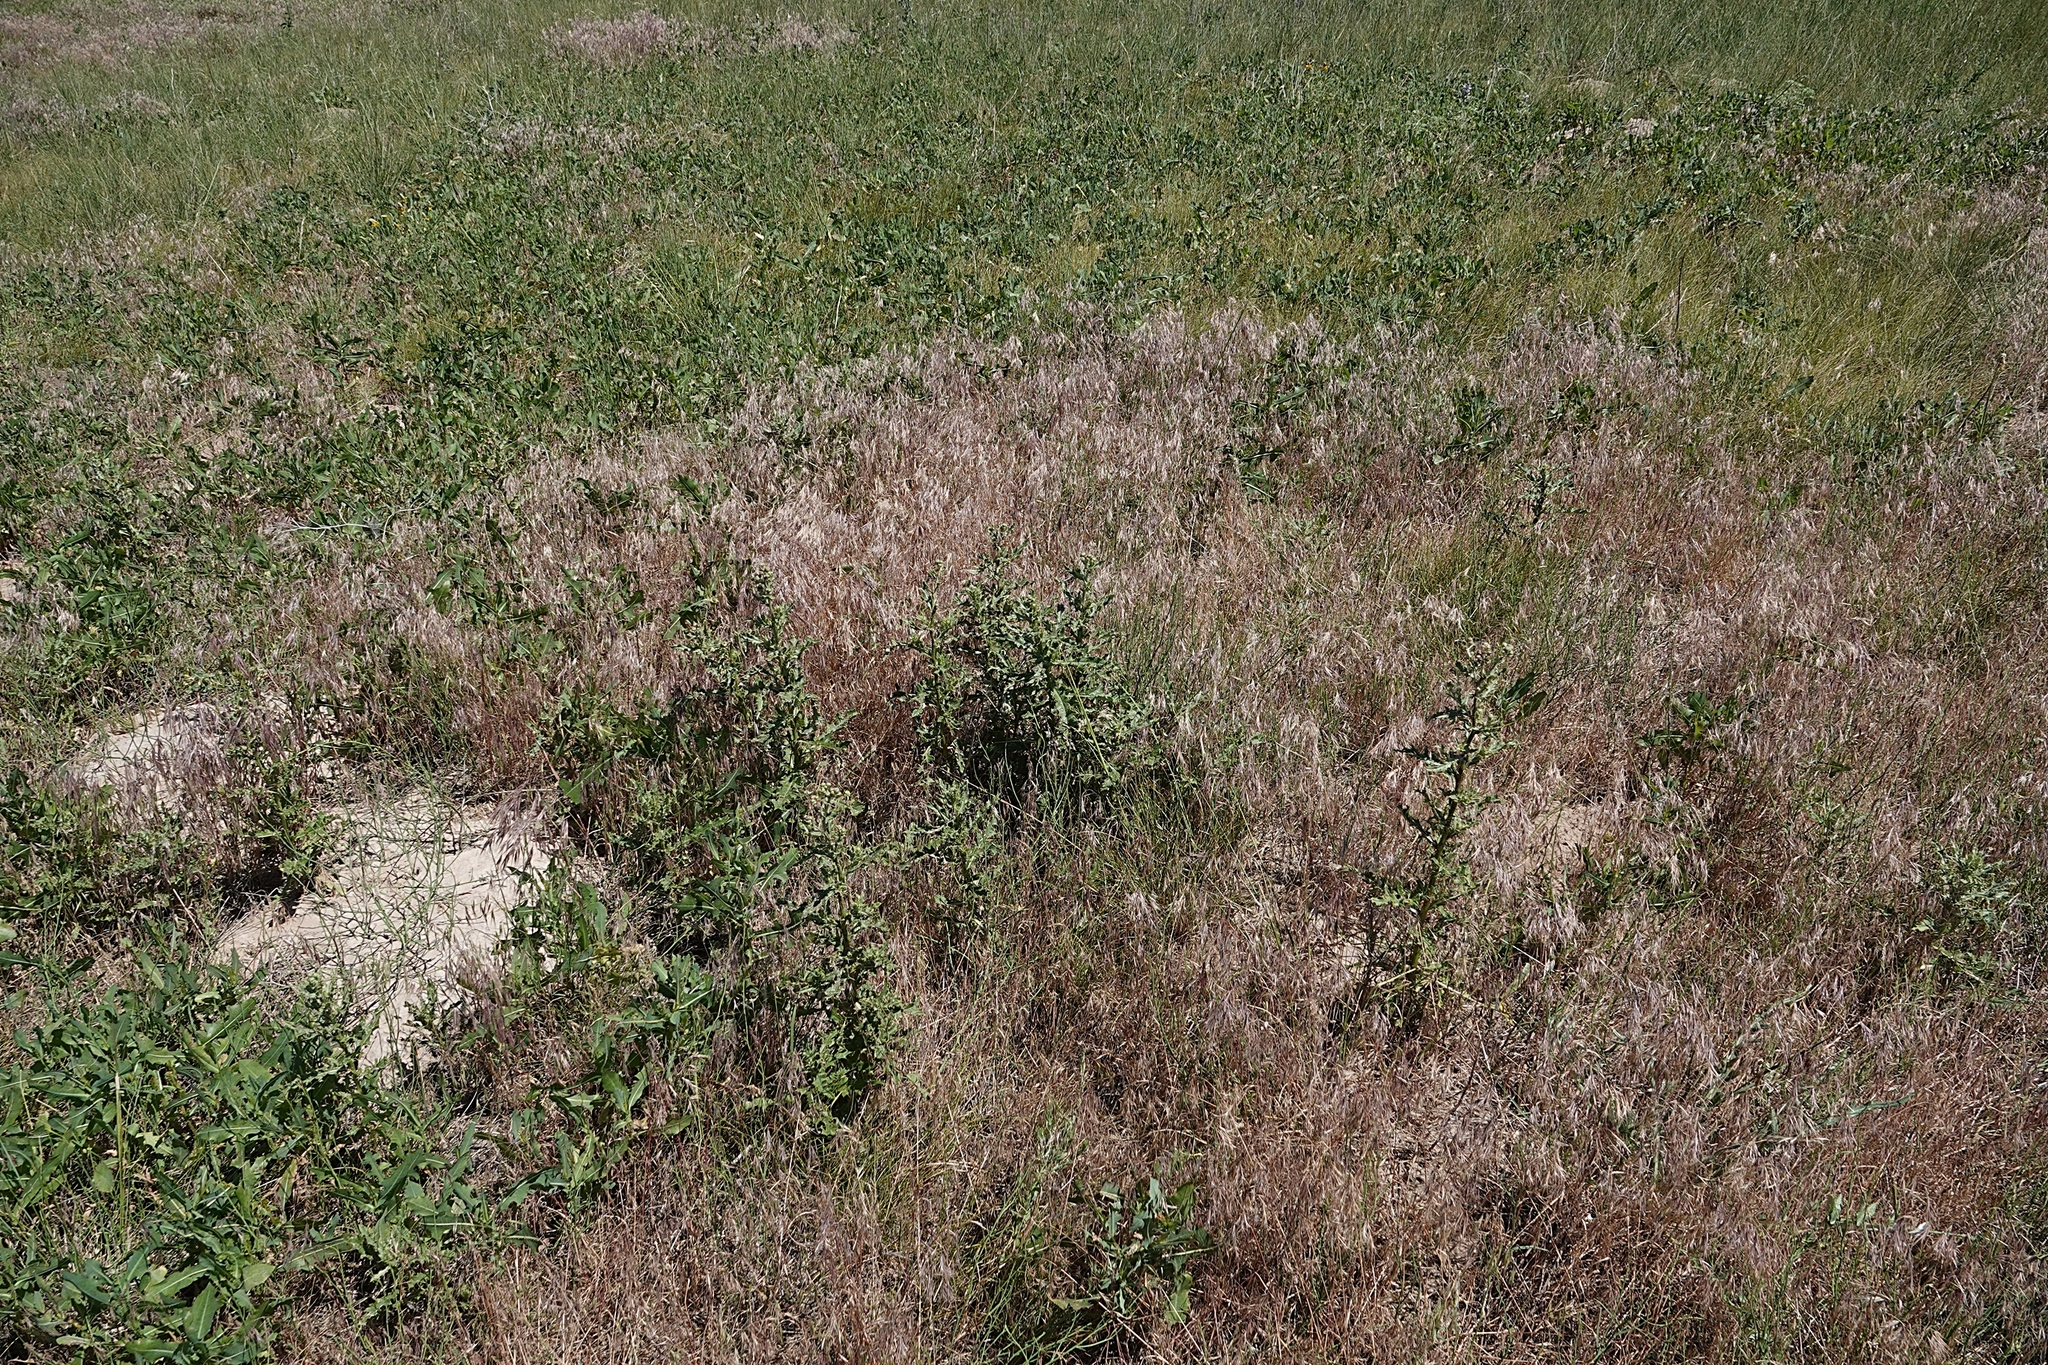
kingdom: Plantae
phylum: Tracheophyta
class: Magnoliopsida
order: Asterales
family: Asteraceae
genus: Cirsium
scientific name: Cirsium arvense
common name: Creeping thistle
